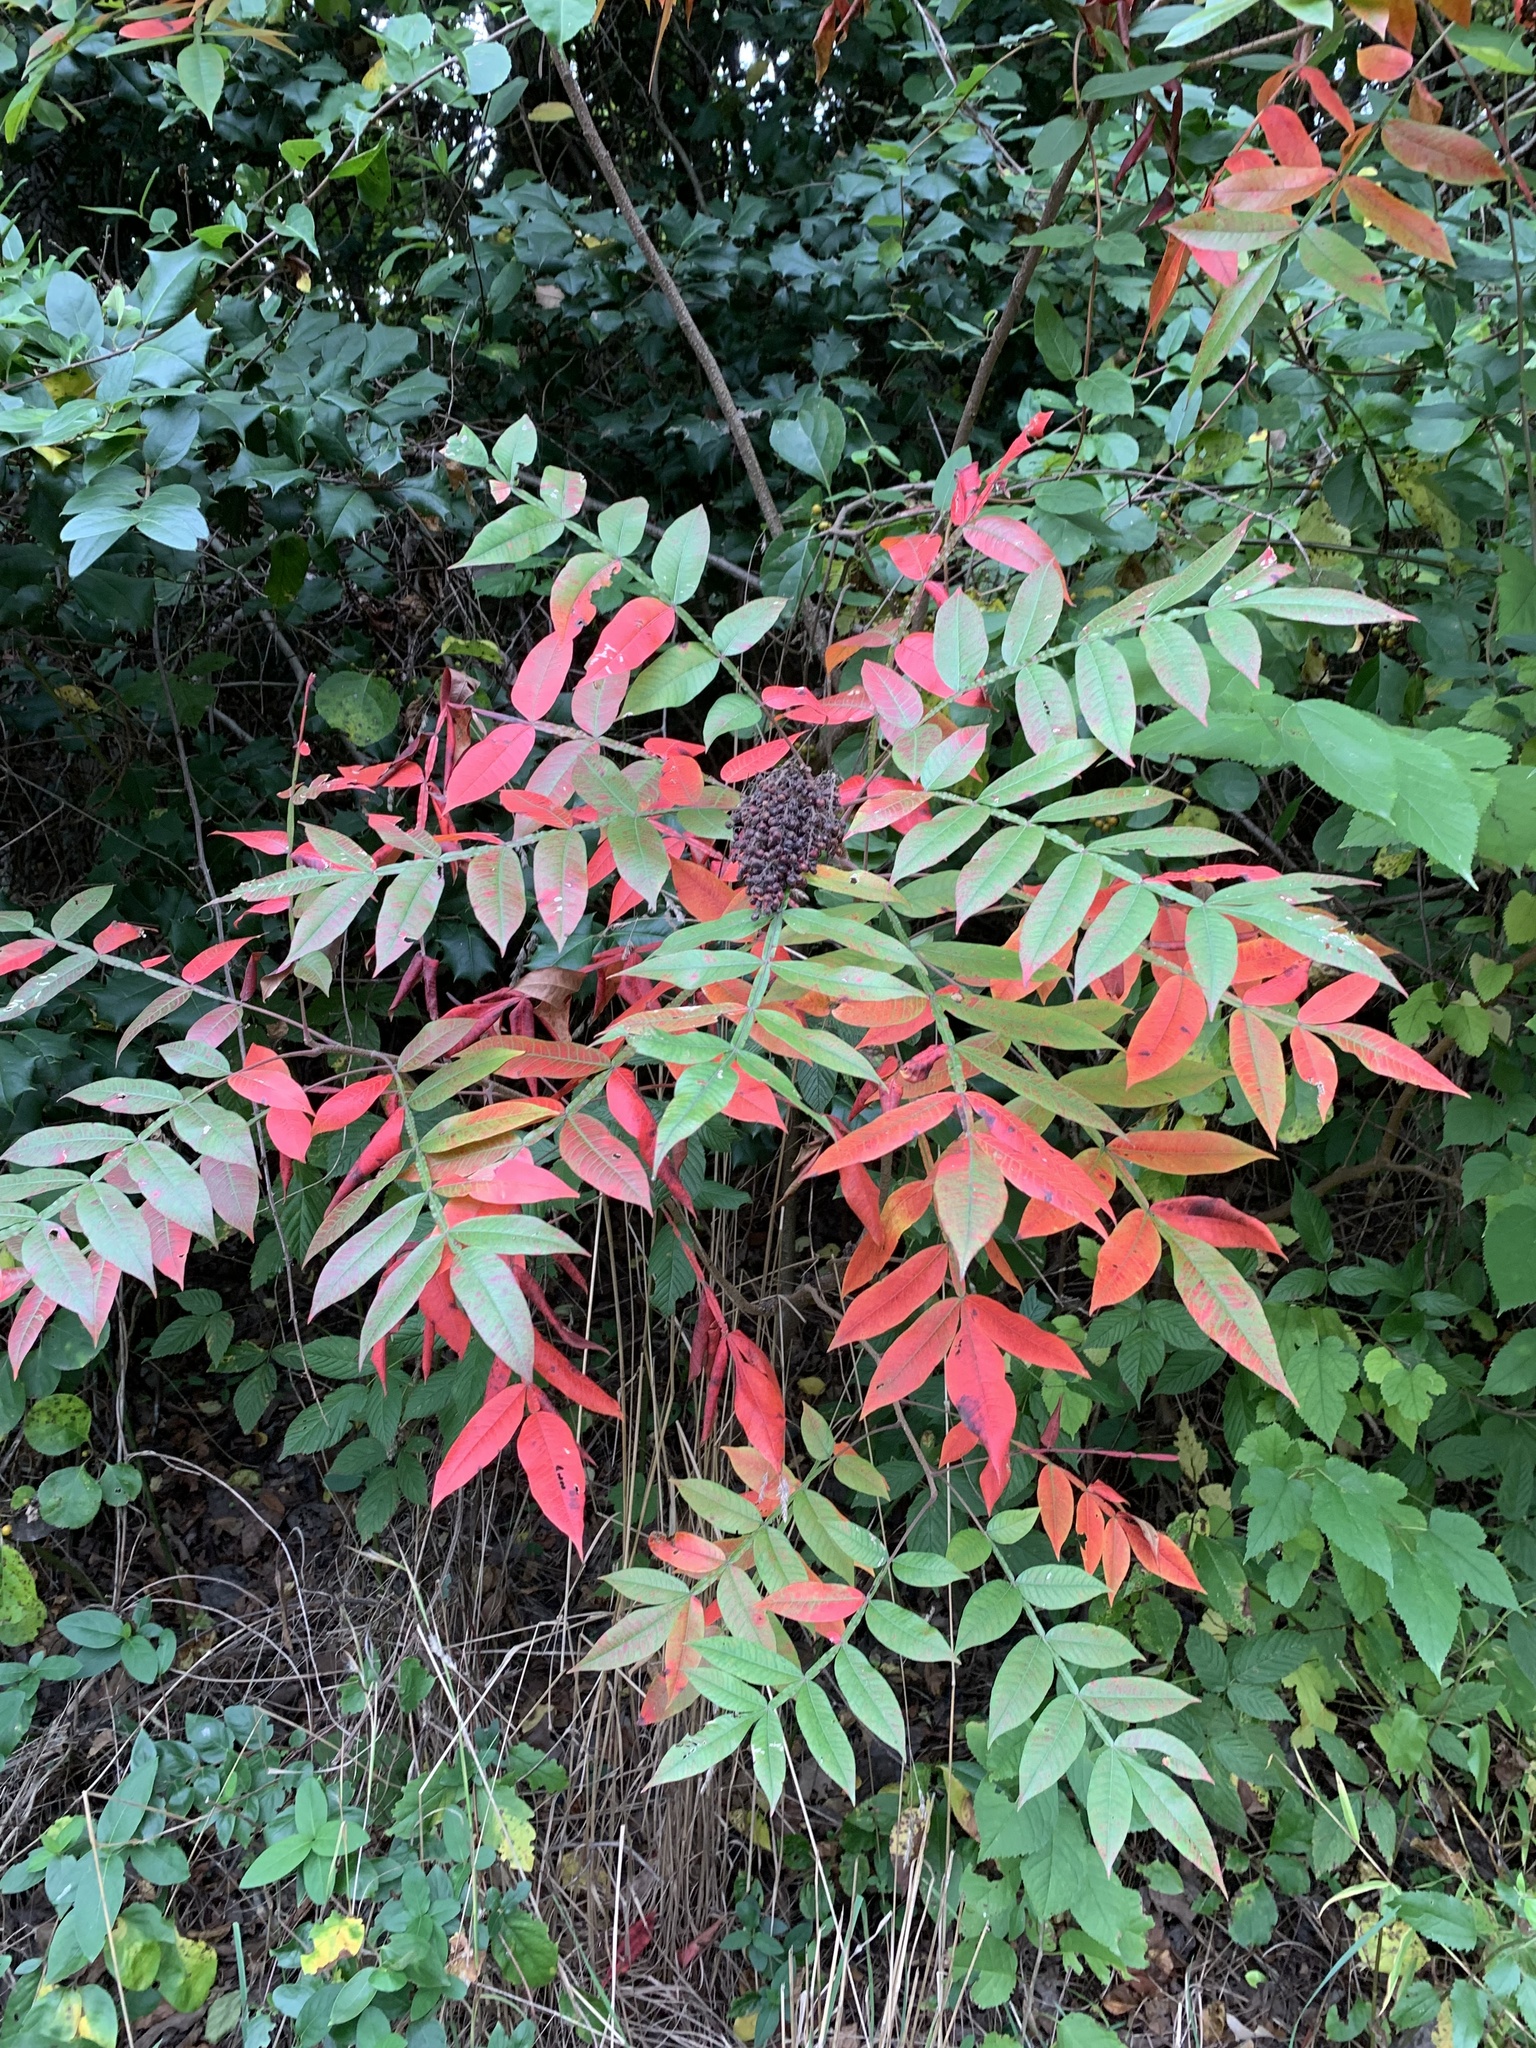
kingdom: Plantae
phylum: Tracheophyta
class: Magnoliopsida
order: Sapindales
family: Anacardiaceae
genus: Rhus
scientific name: Rhus copallina
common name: Shining sumac
